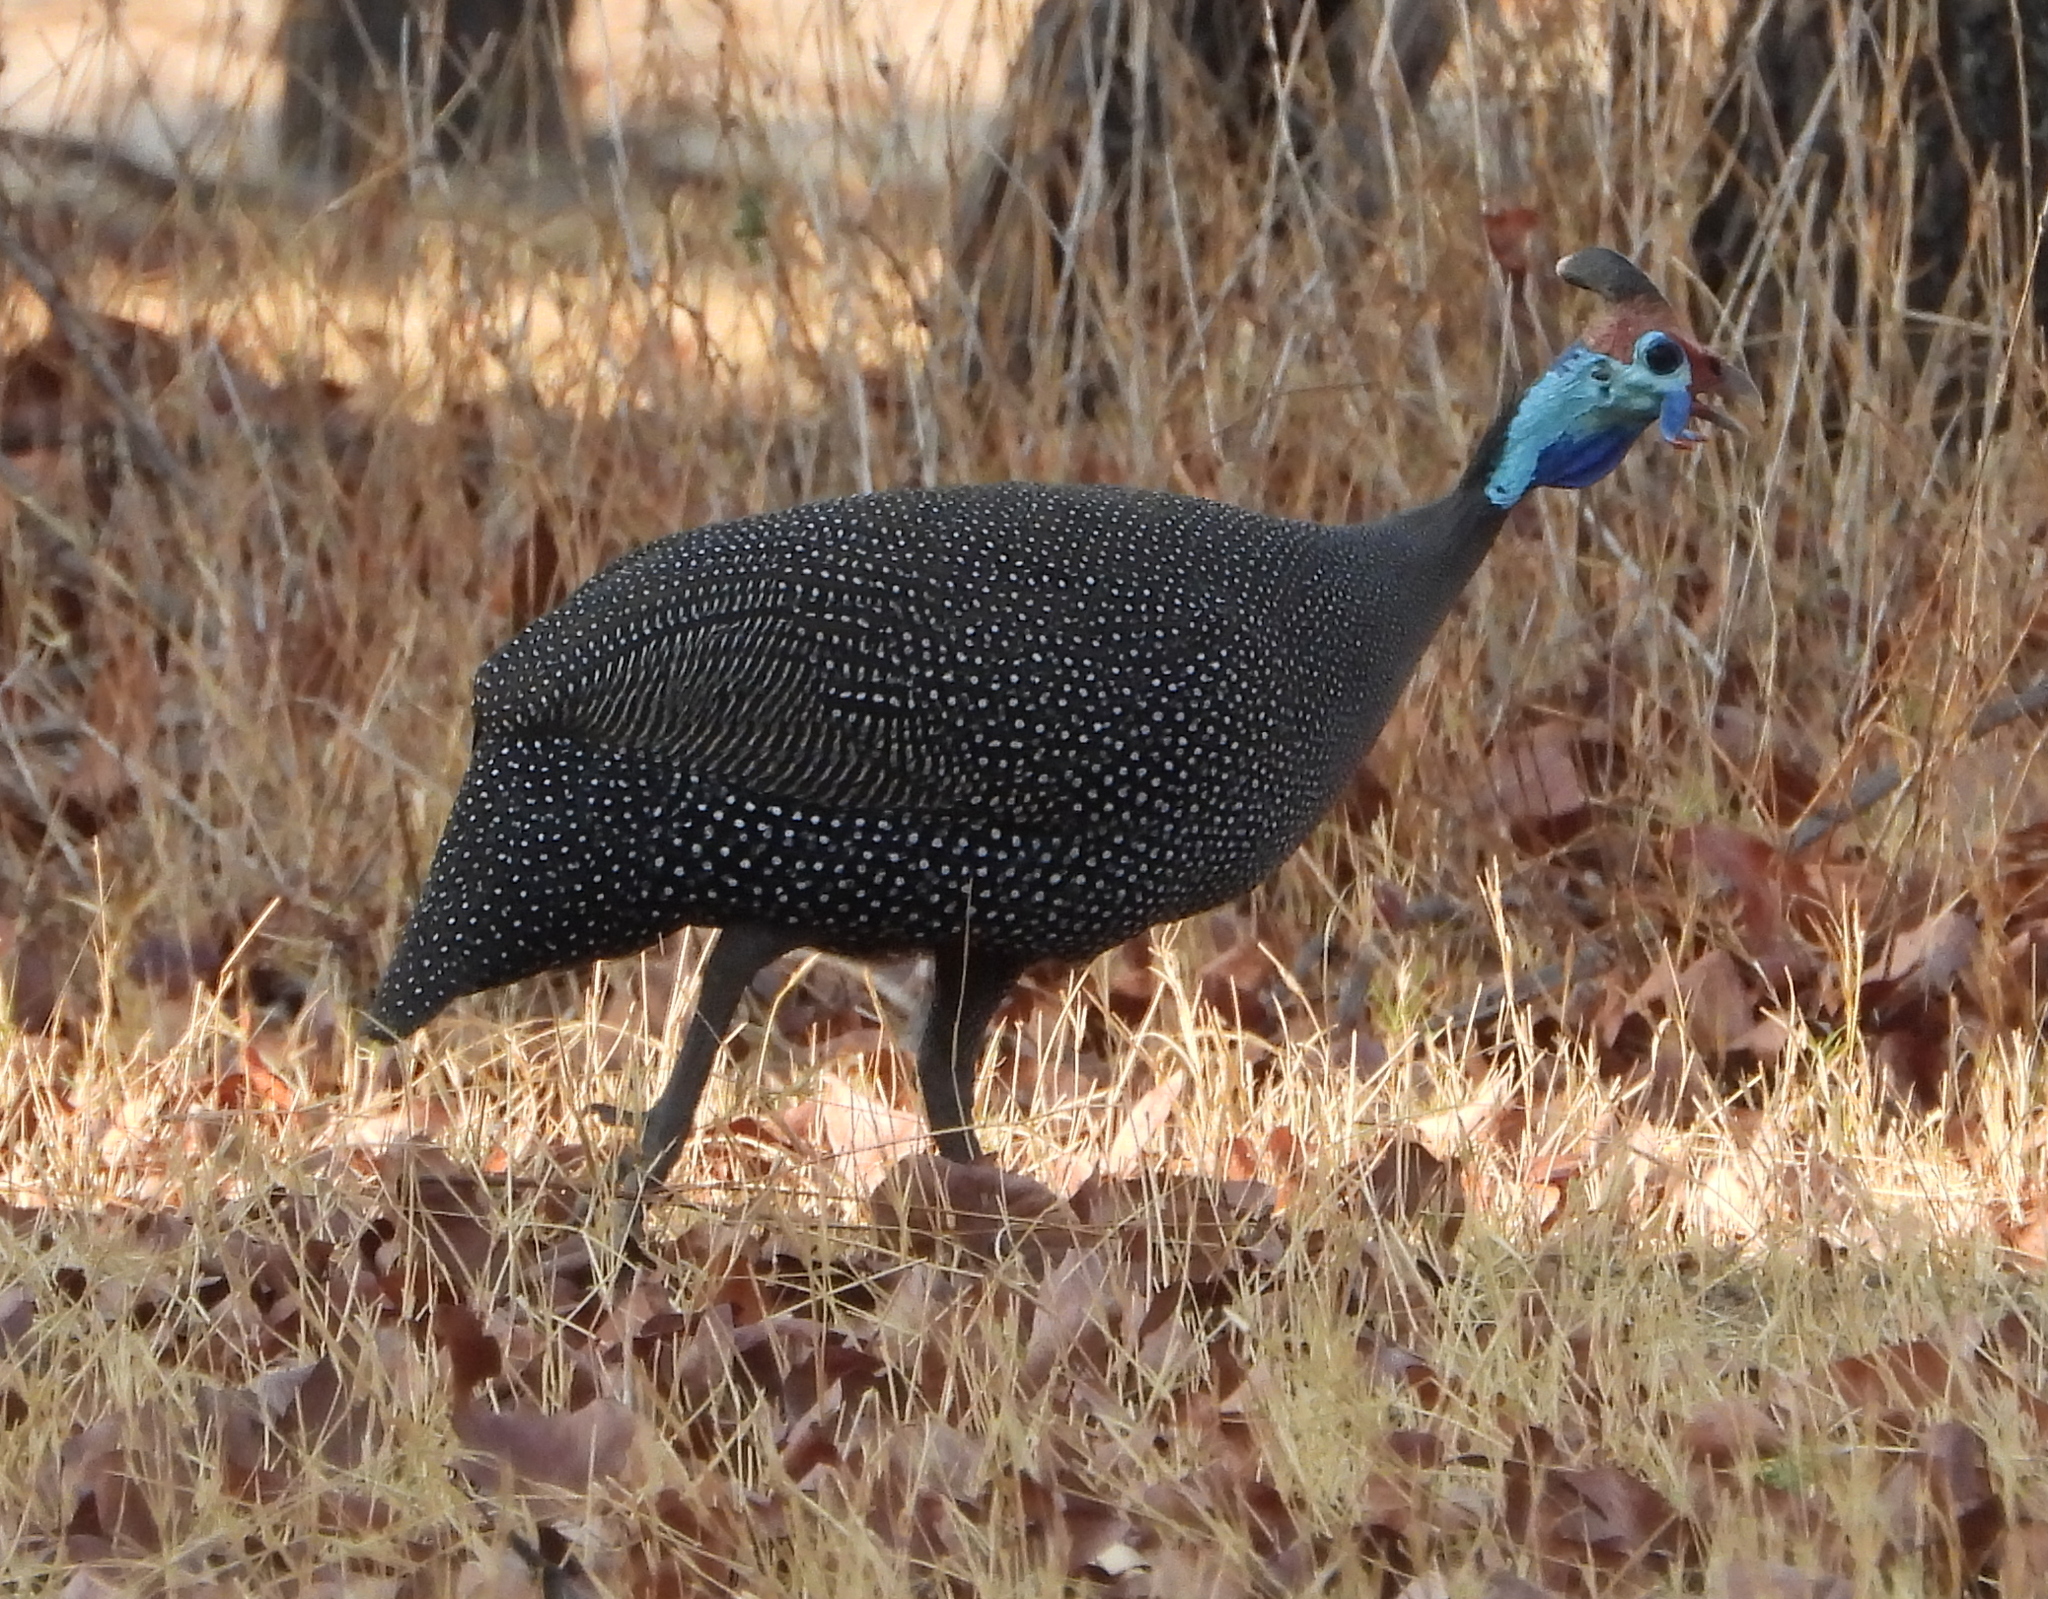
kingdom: Animalia
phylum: Chordata
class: Aves
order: Galliformes
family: Numididae
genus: Numida
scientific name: Numida meleagris
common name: Helmeted guineafowl
